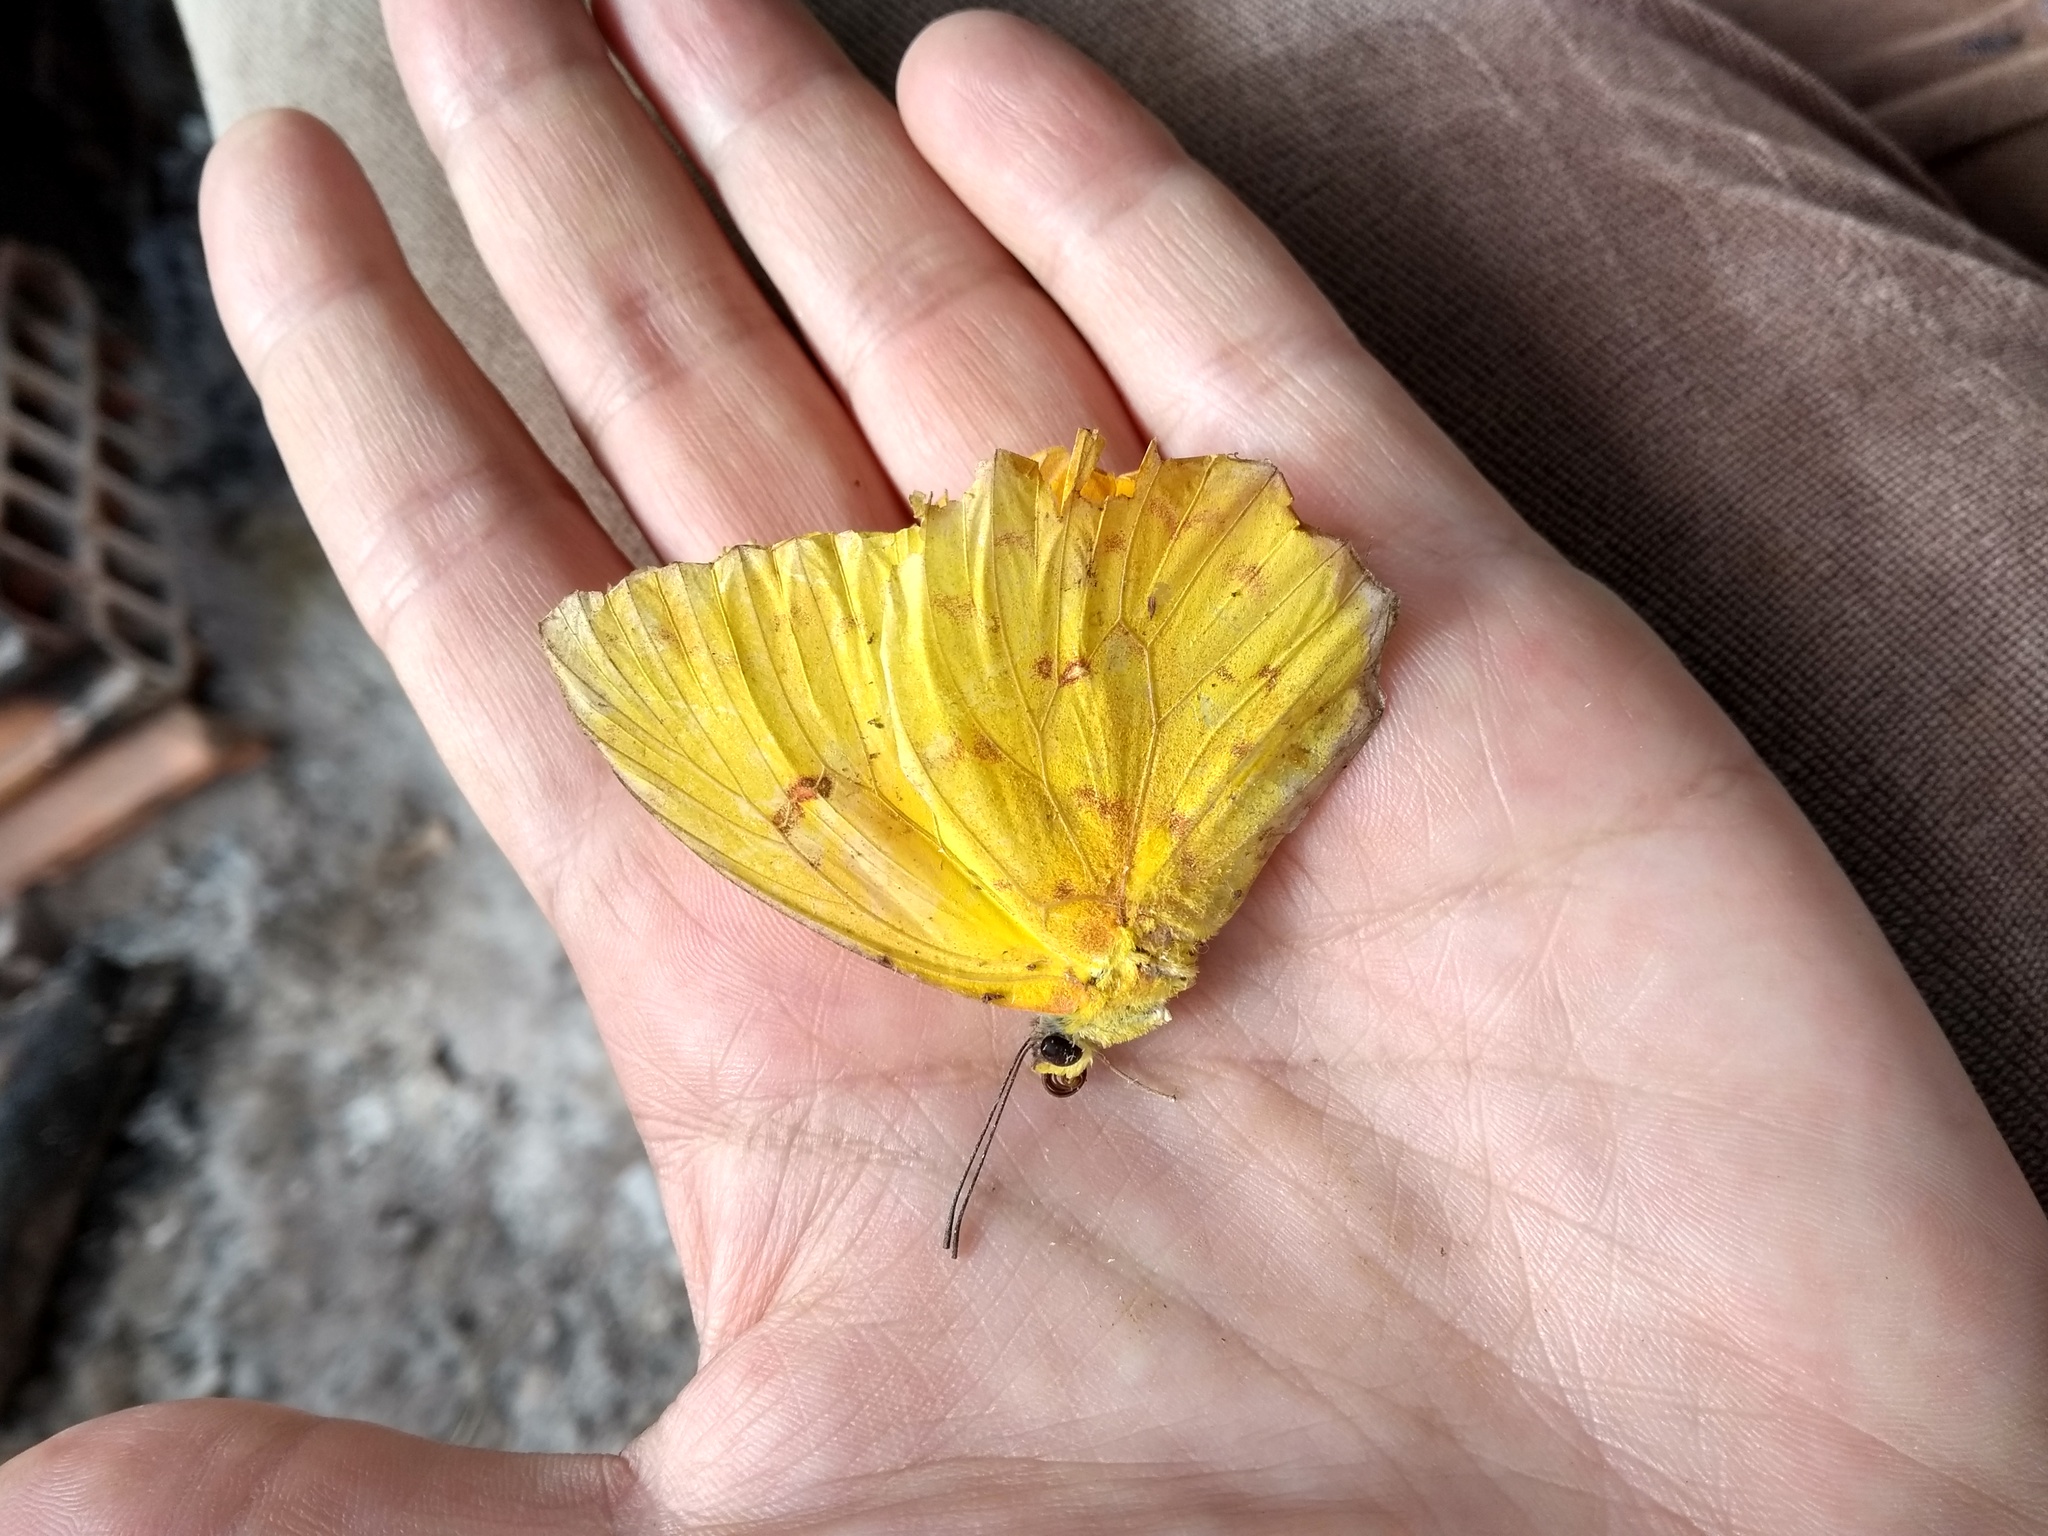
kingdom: Animalia
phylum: Arthropoda
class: Insecta
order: Lepidoptera
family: Pieridae
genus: Phoebis
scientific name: Phoebis philea
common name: Orange-barred giant sulphur
